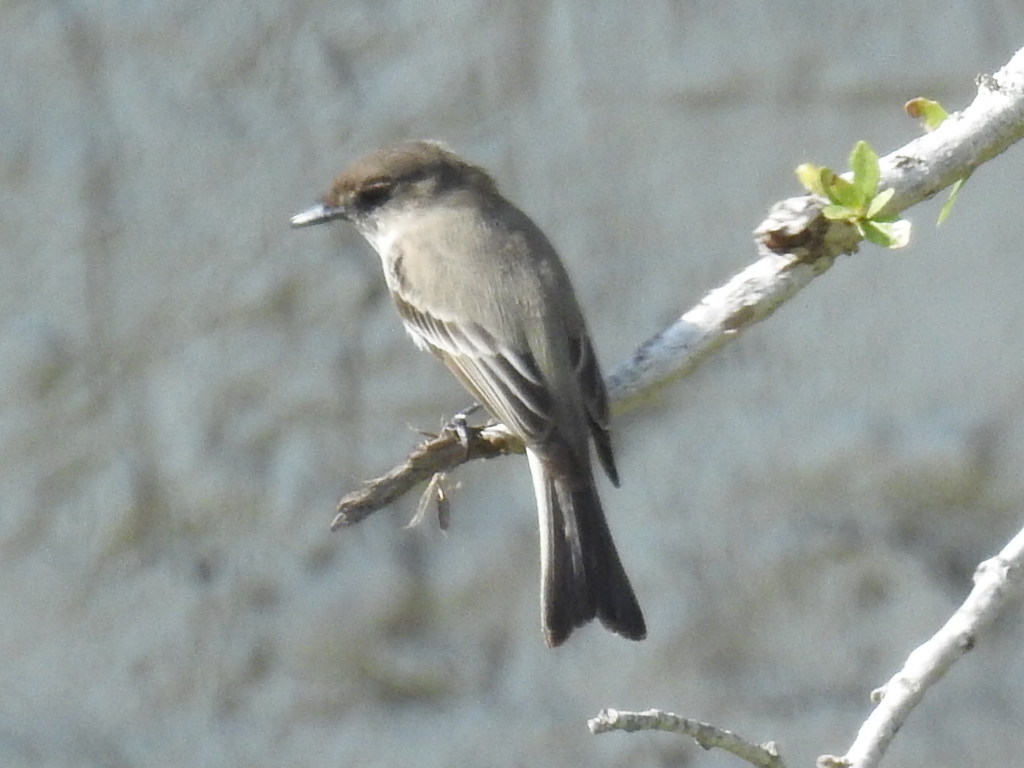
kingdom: Animalia
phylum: Chordata
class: Aves
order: Passeriformes
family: Tyrannidae
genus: Sayornis
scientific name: Sayornis phoebe
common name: Eastern phoebe
